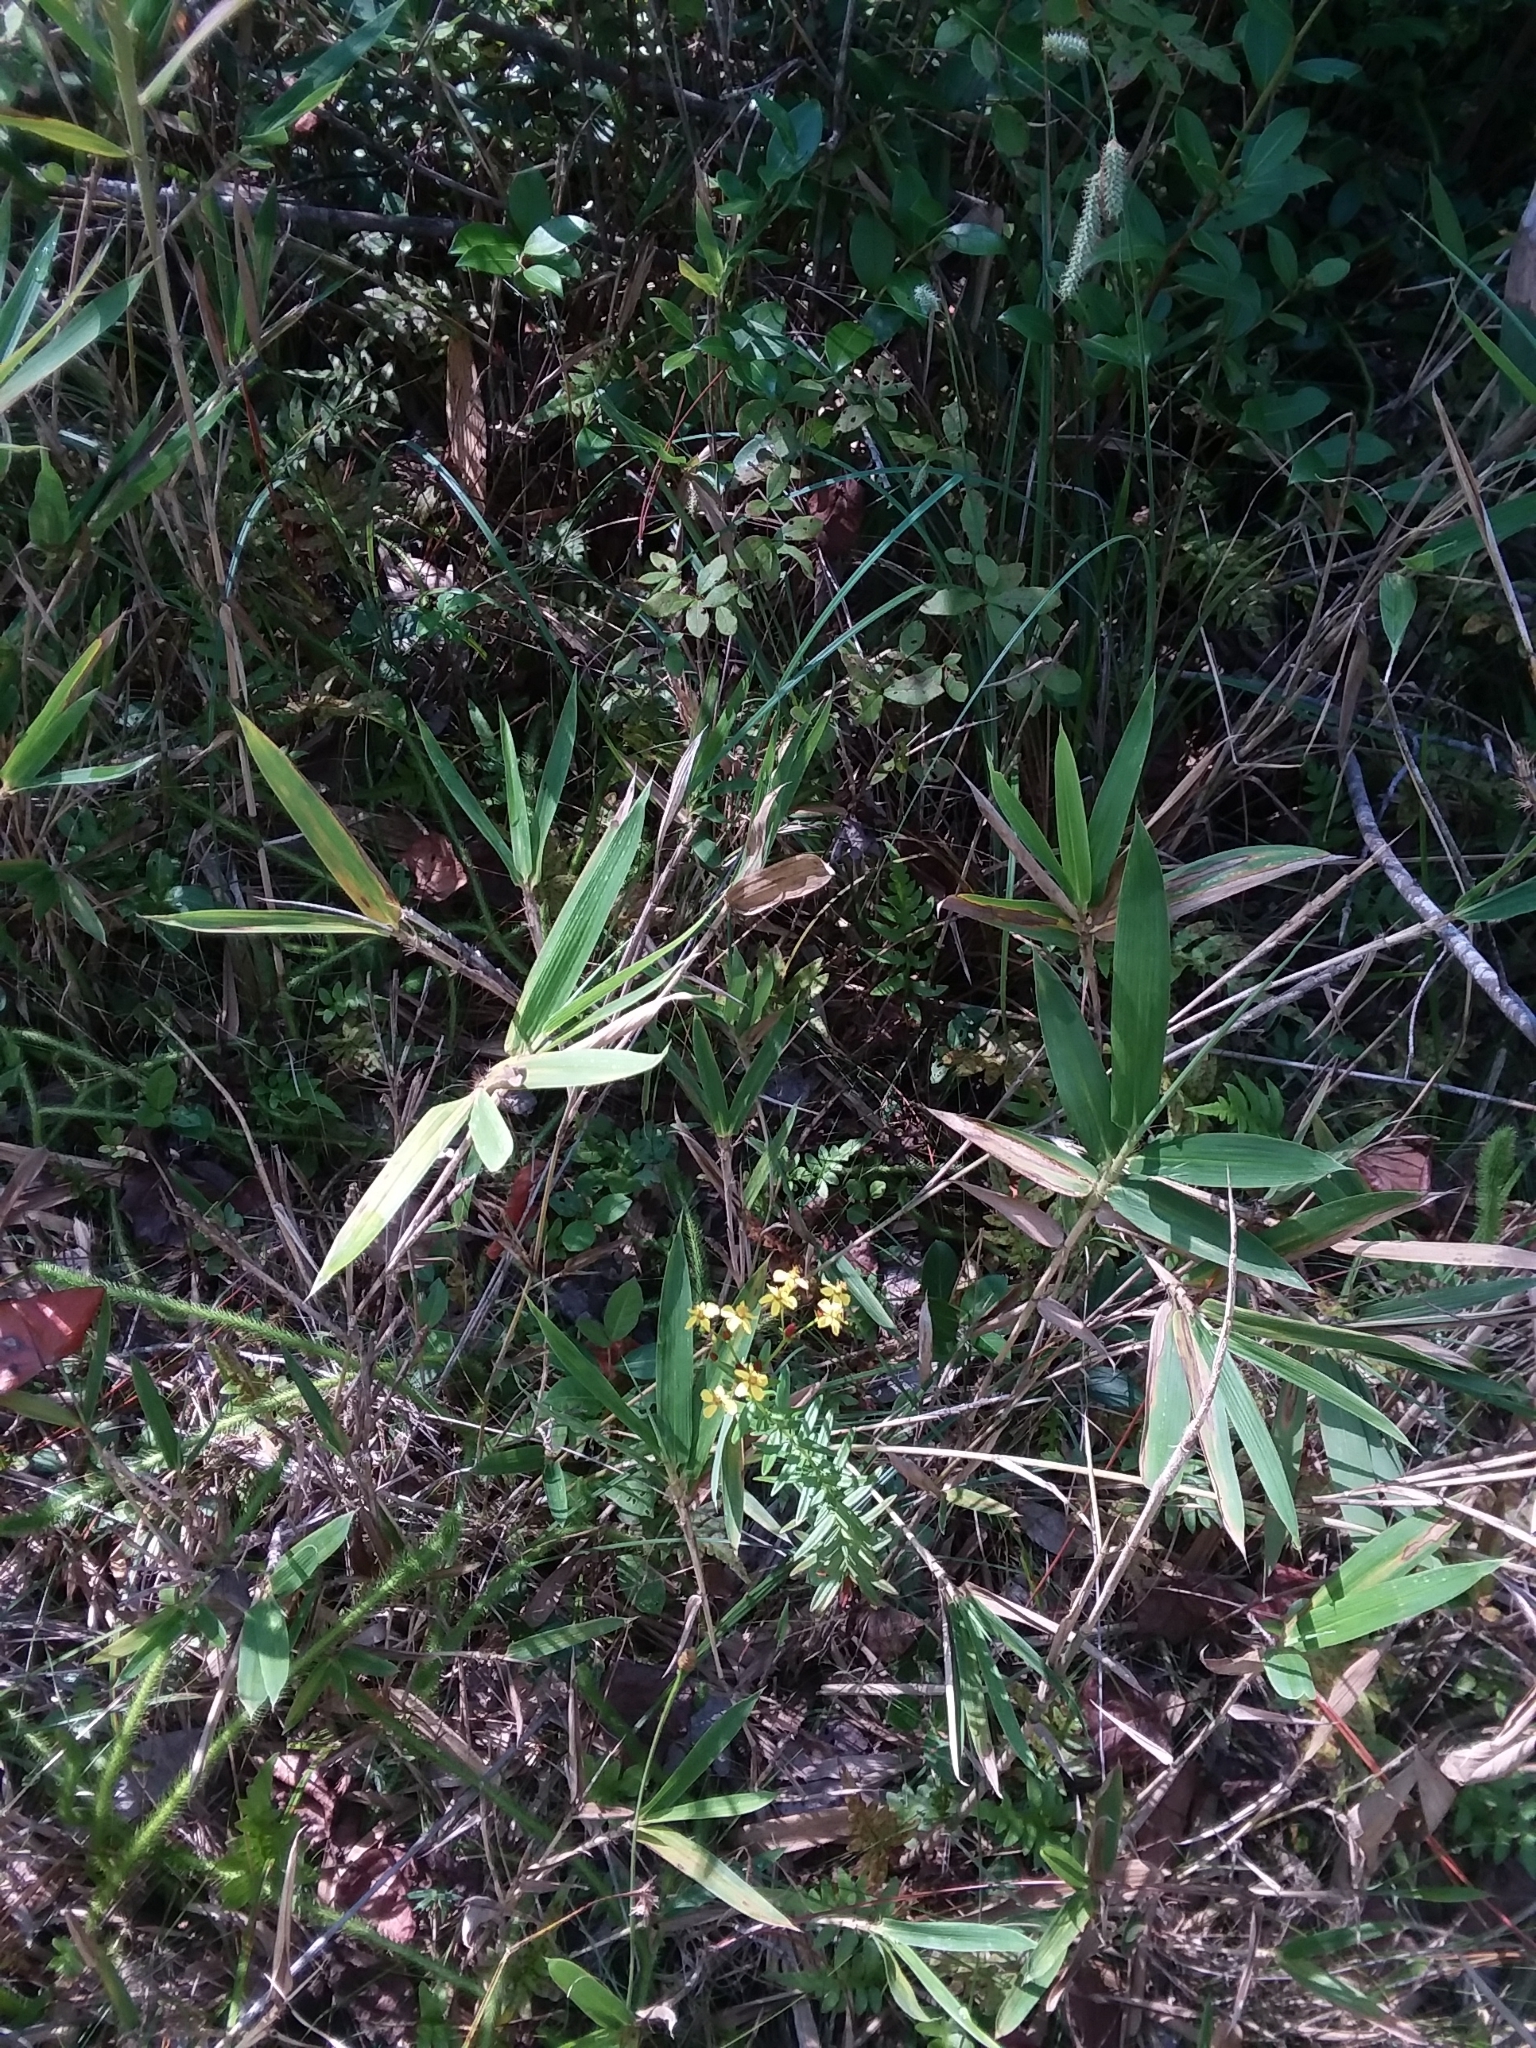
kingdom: Plantae
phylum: Tracheophyta
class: Magnoliopsida
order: Malpighiales
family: Hypericaceae
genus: Hypericum
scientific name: Hypericum cistifolium
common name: Round-pod st. john's-wort
